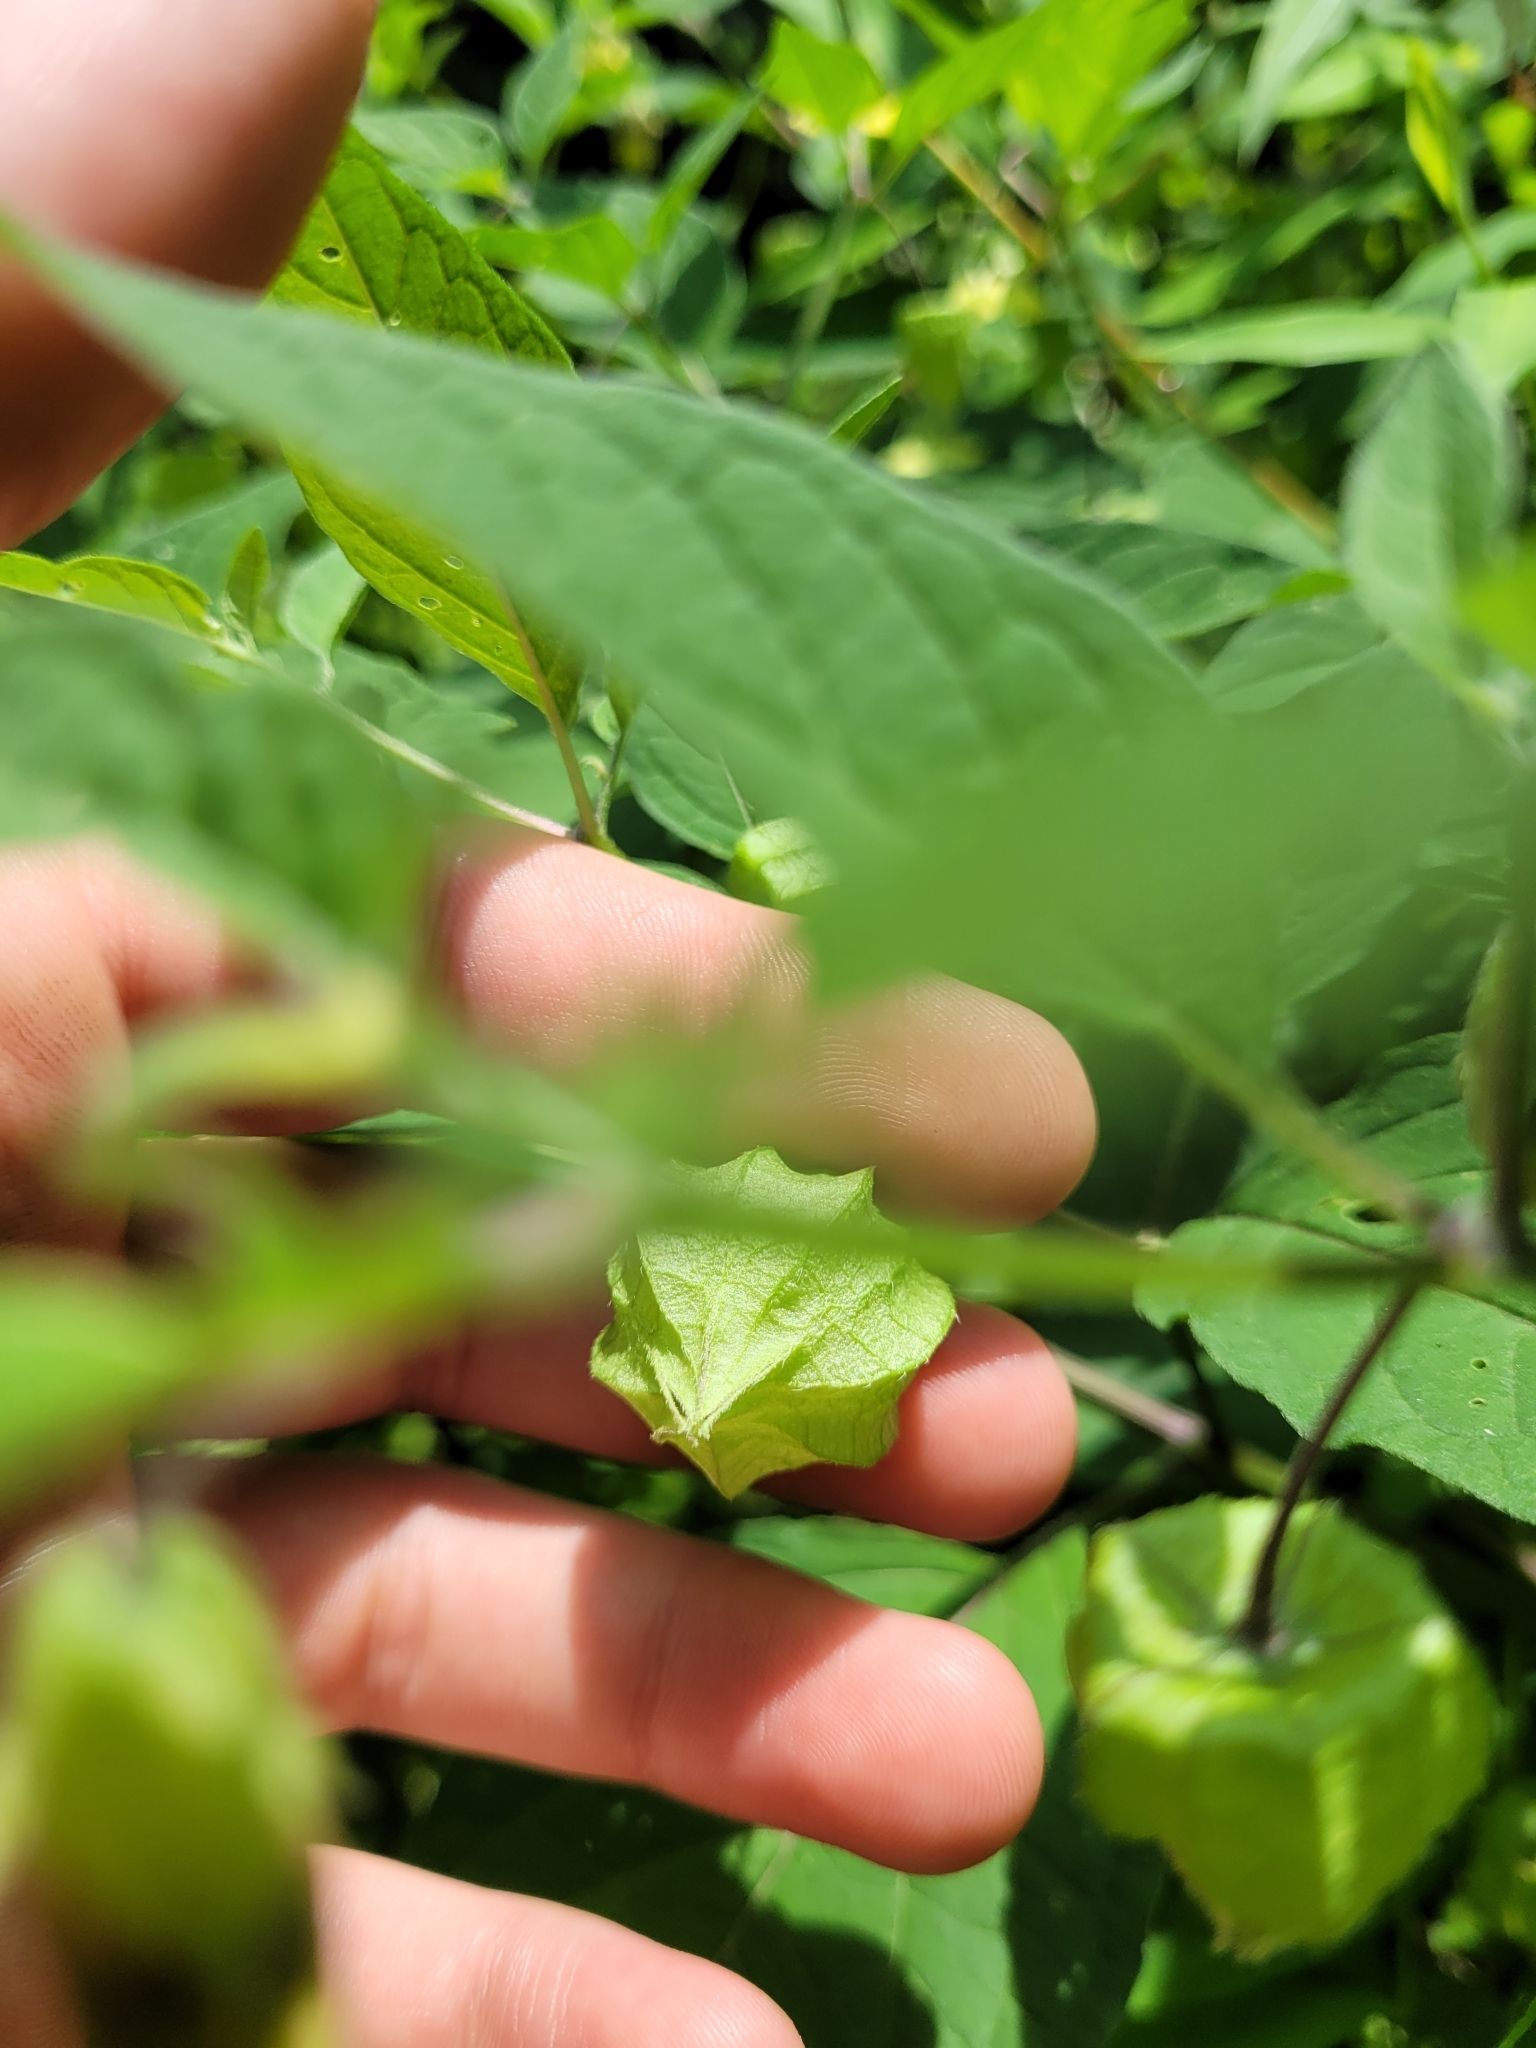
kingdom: Plantae
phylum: Tracheophyta
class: Magnoliopsida
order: Solanales
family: Solanaceae
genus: Physalis
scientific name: Physalis longifolia
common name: Common ground-cherry
